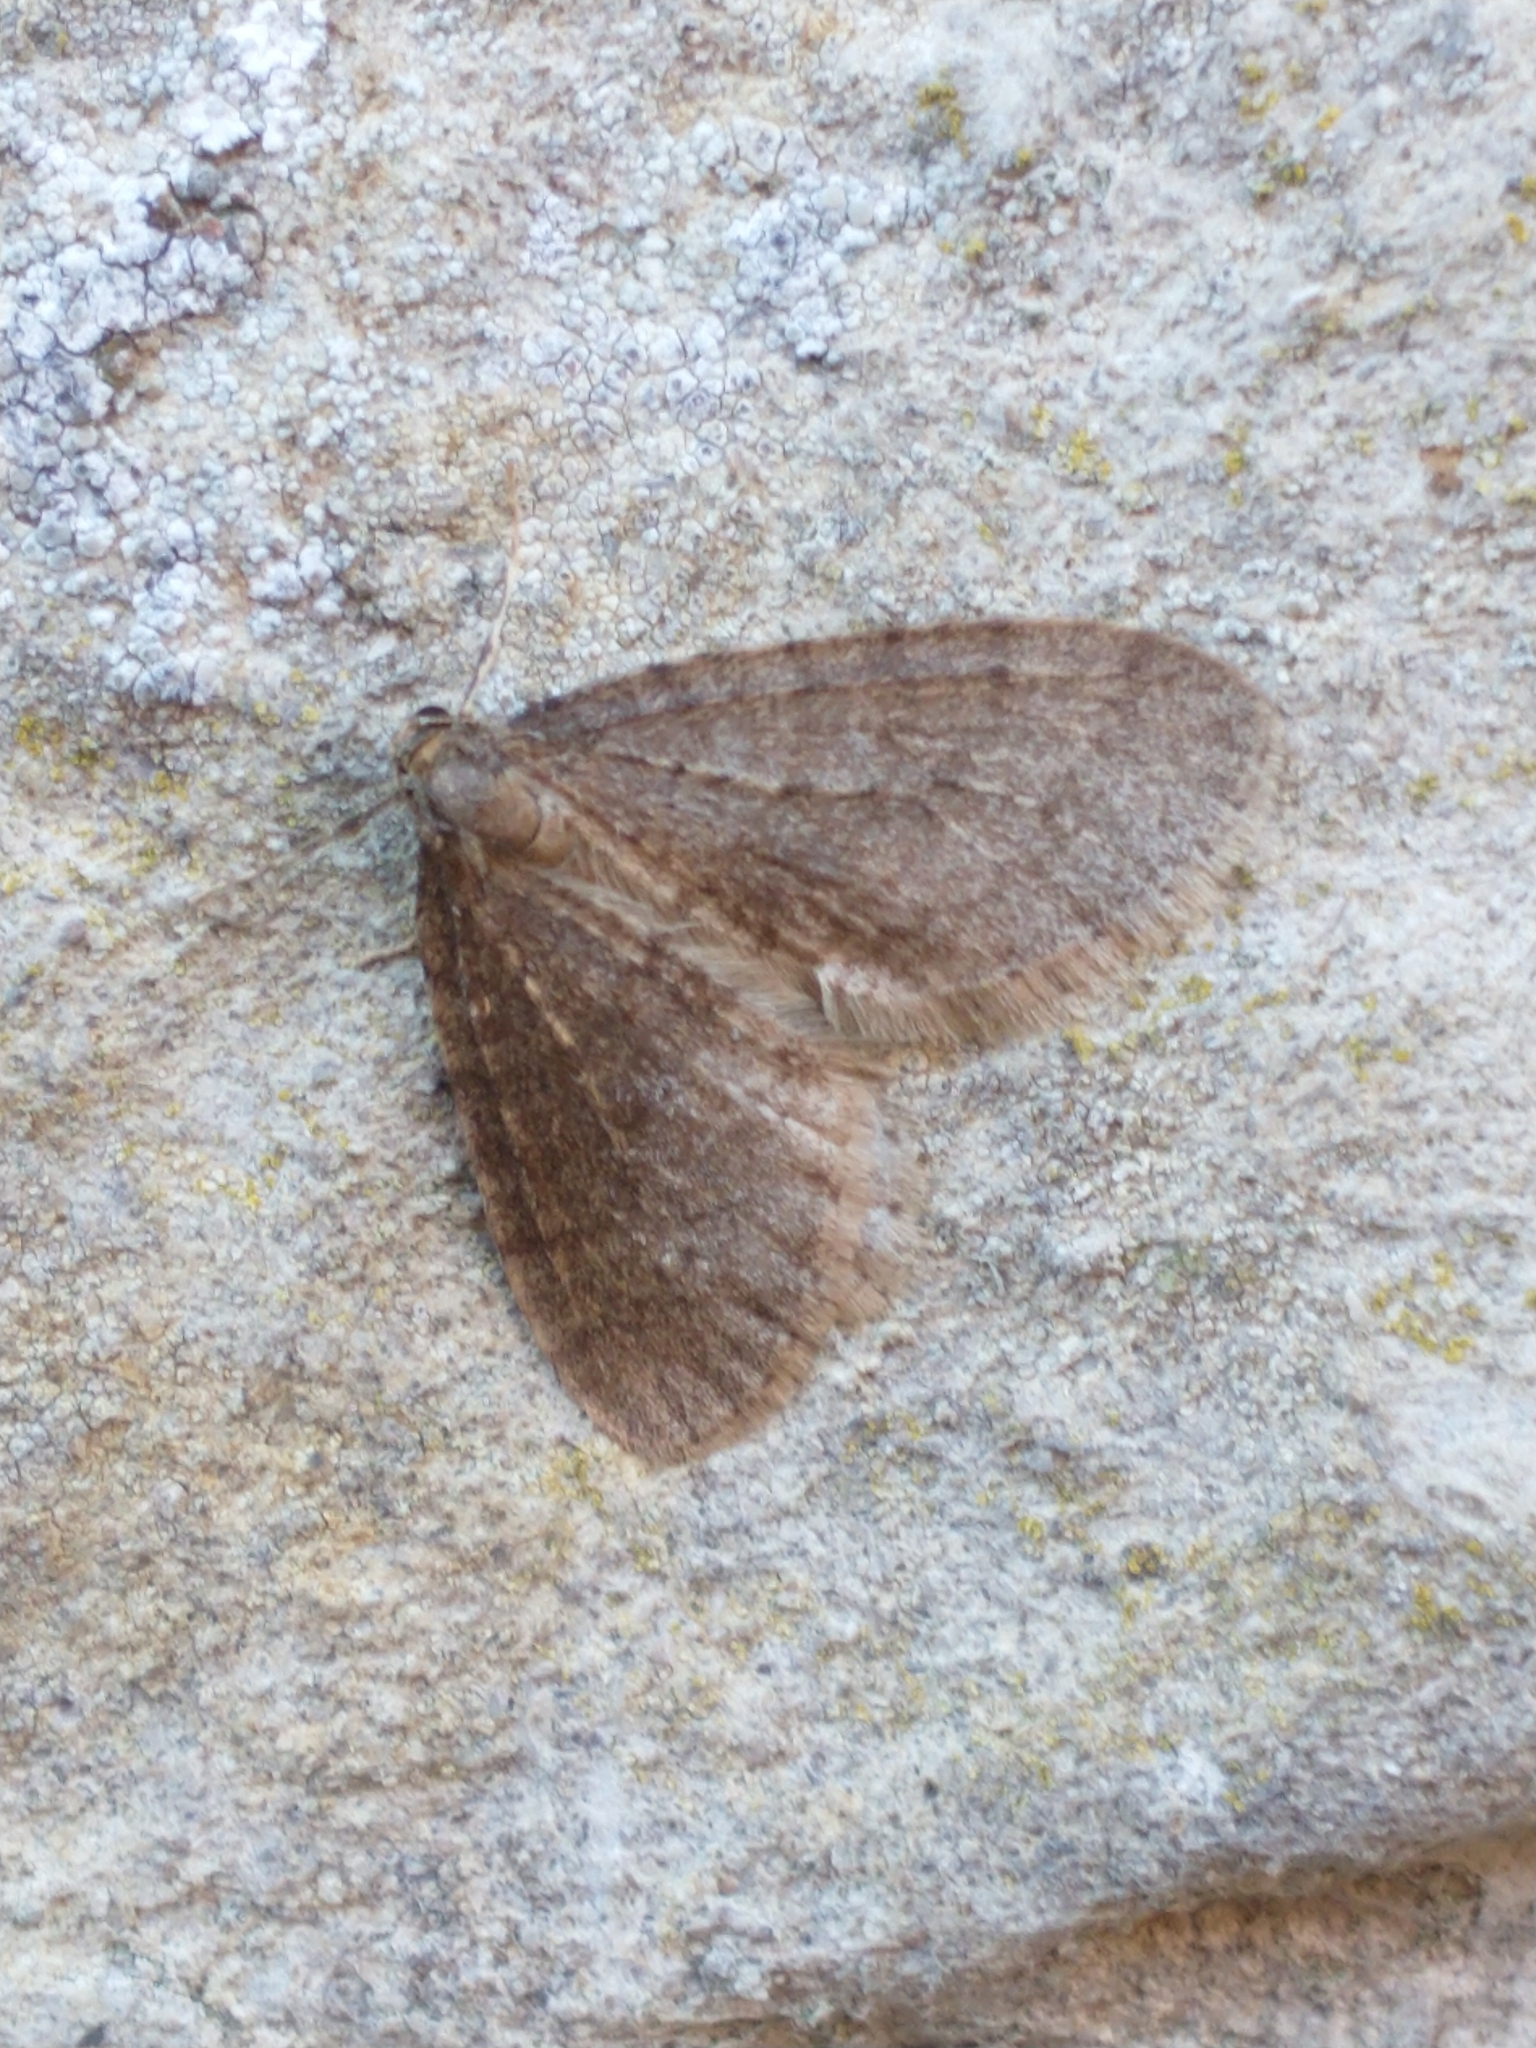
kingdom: Animalia
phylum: Arthropoda
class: Insecta
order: Lepidoptera
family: Geometridae
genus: Operophtera
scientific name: Operophtera brumata
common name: Winter moth
